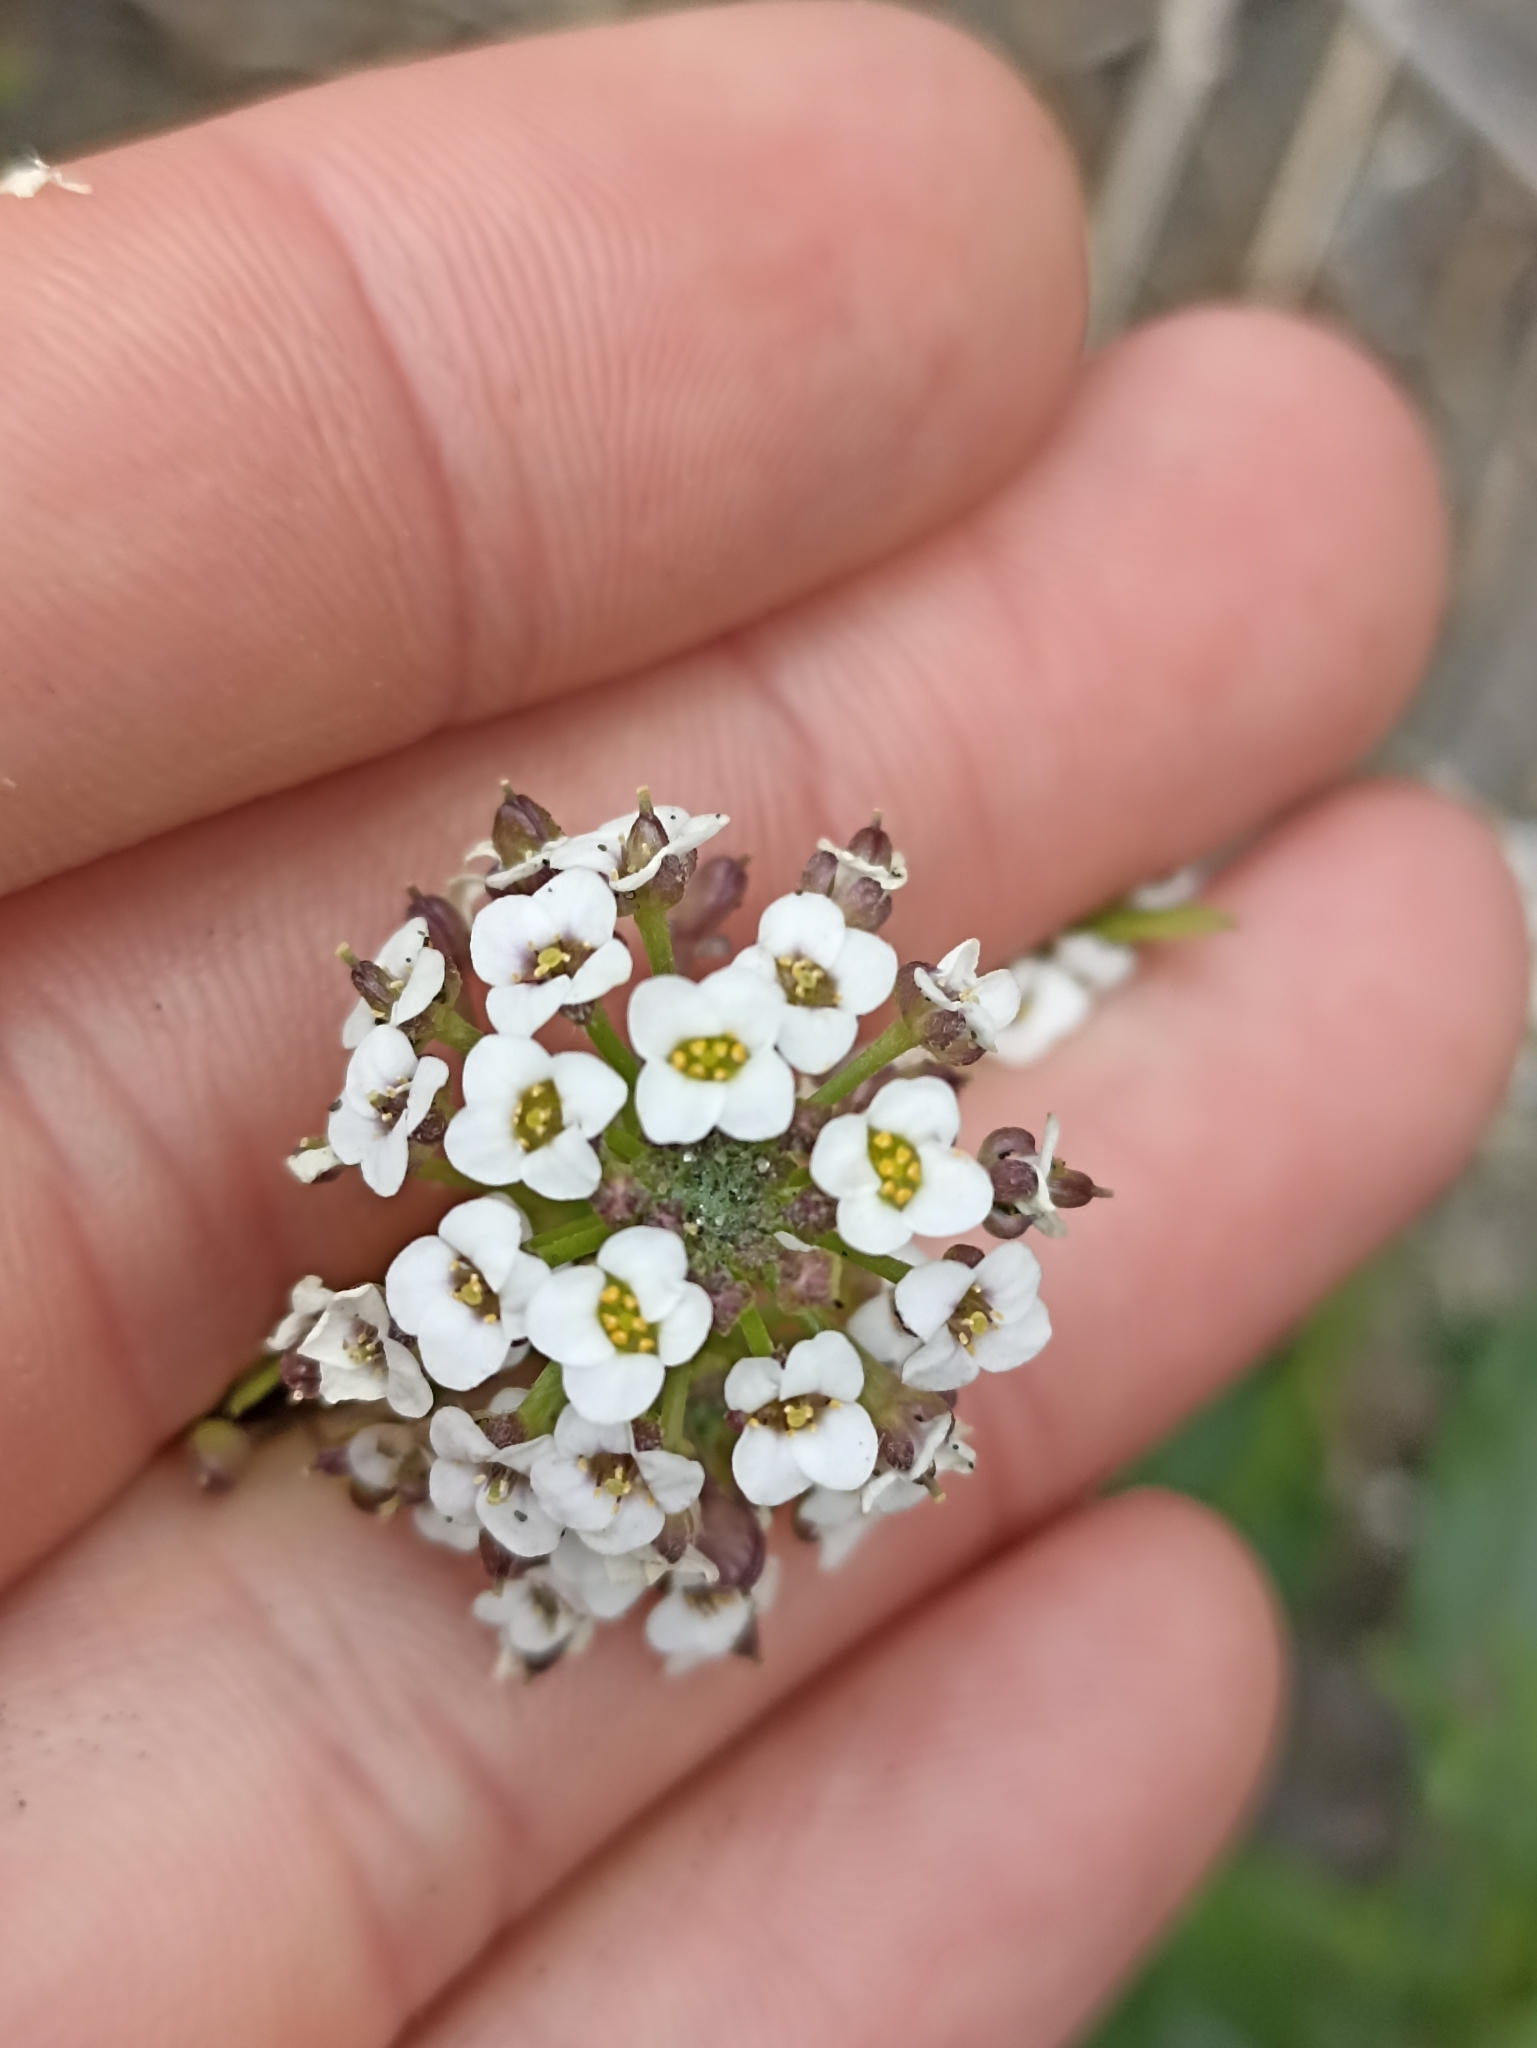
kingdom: Plantae
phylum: Tracheophyta
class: Magnoliopsida
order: Brassicales
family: Brassicaceae
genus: Lobularia
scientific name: Lobularia maritima
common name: Sweet alison
